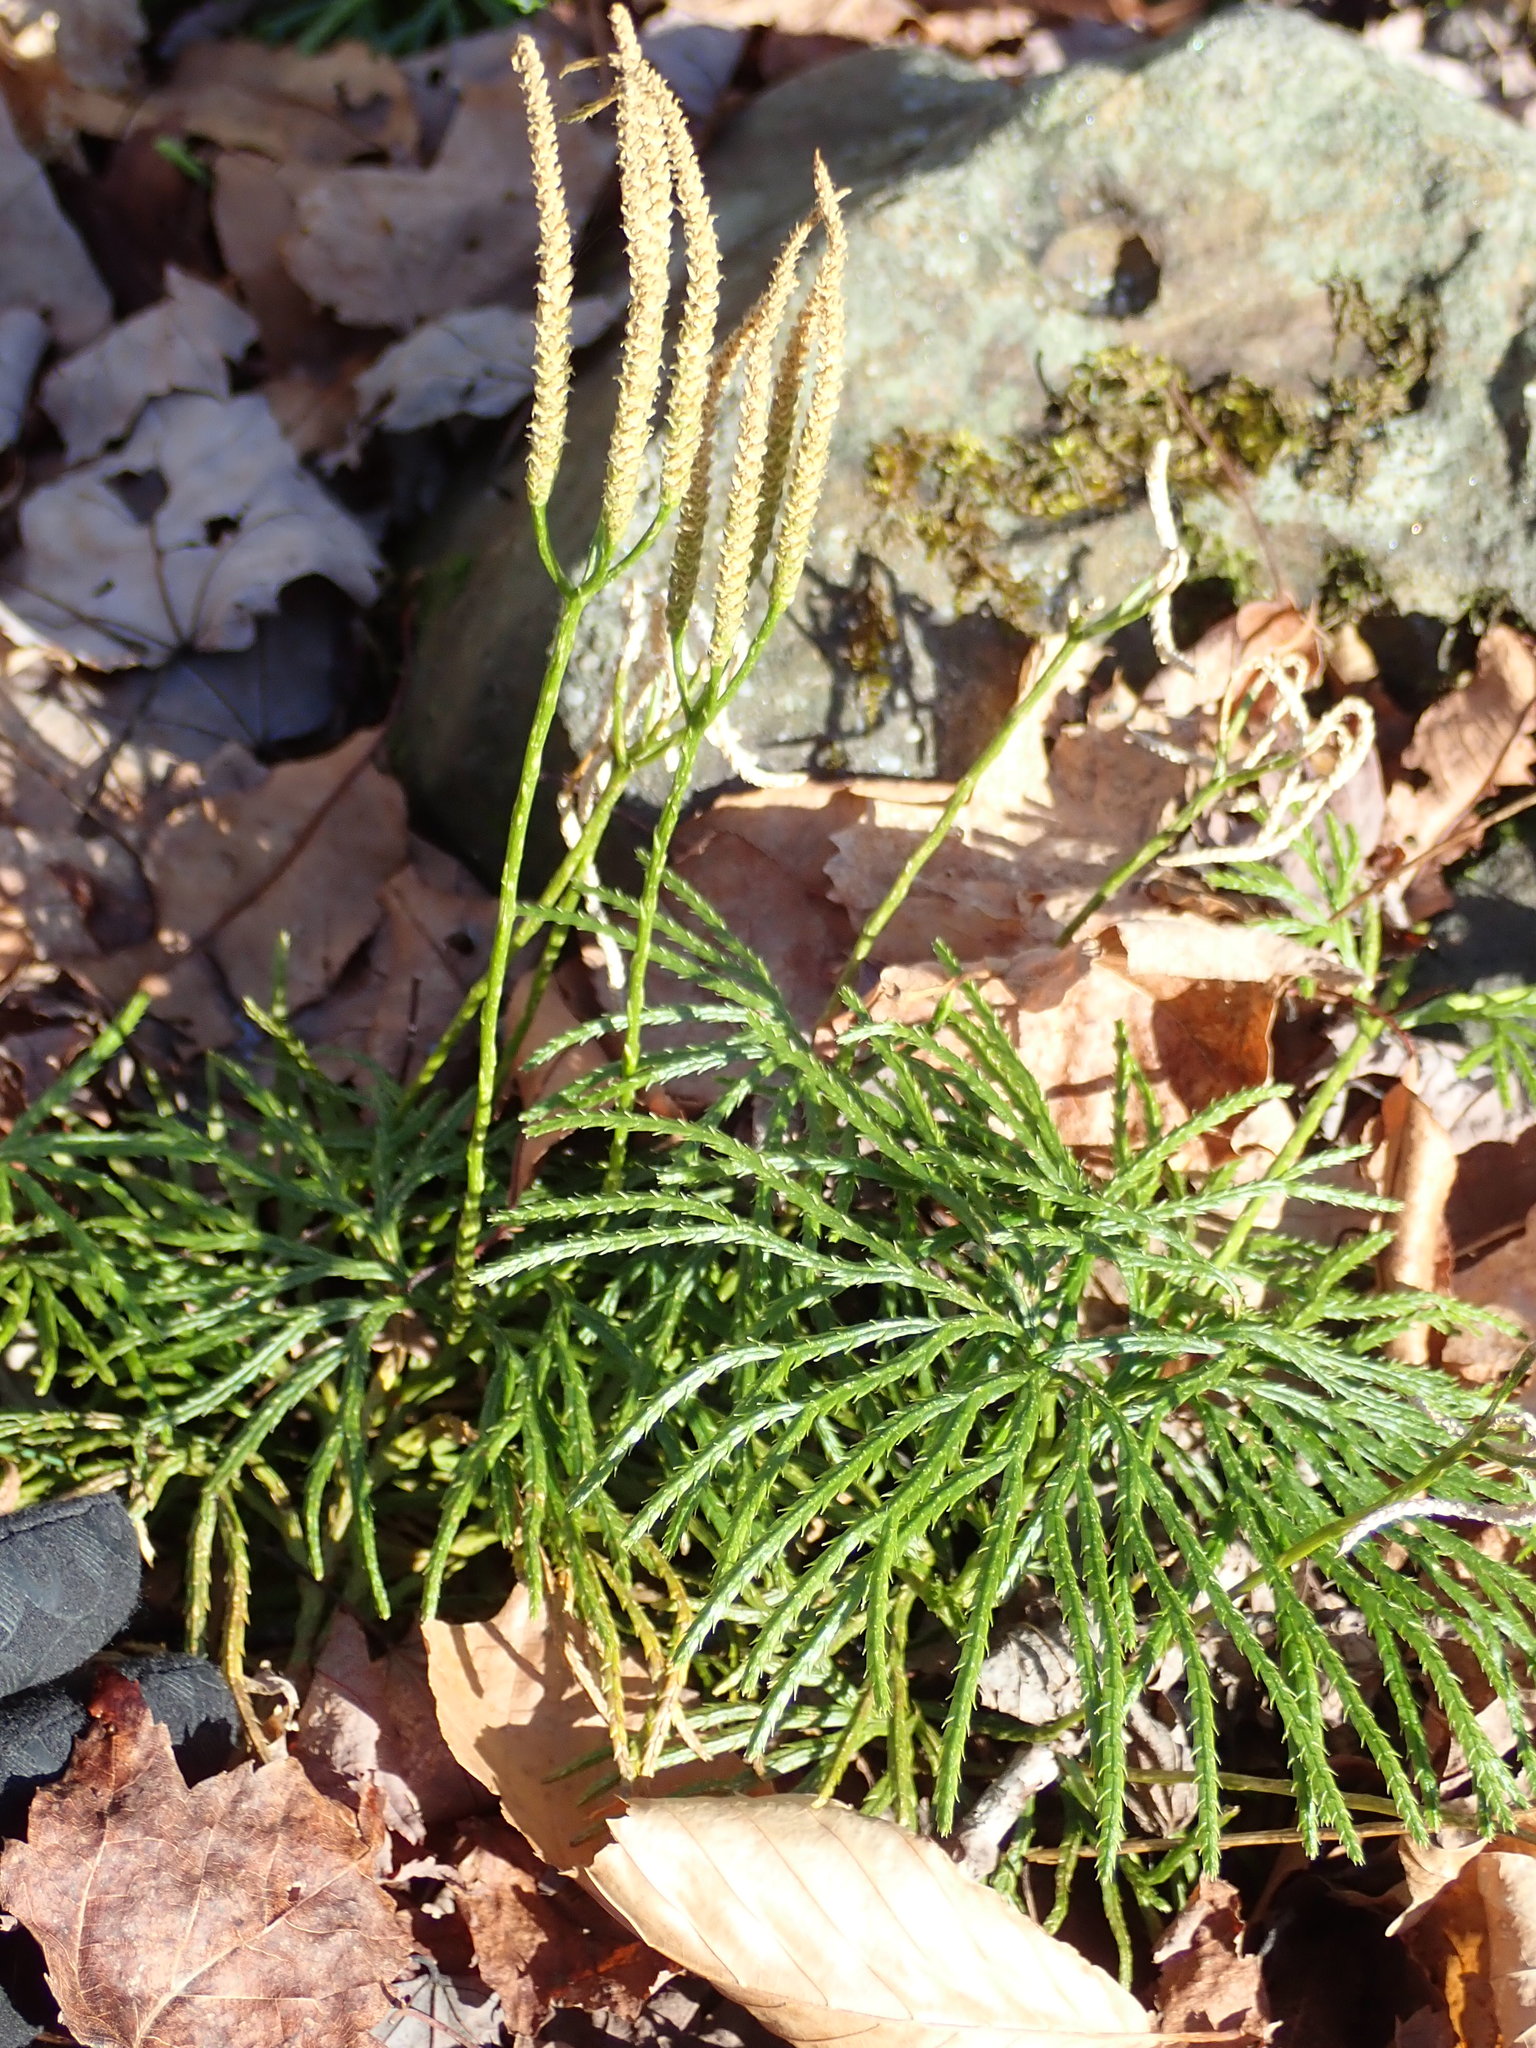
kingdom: Plantae
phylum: Tracheophyta
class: Lycopodiopsida
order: Lycopodiales
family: Lycopodiaceae
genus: Diphasiastrum
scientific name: Diphasiastrum digitatum
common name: Southern running-pine
